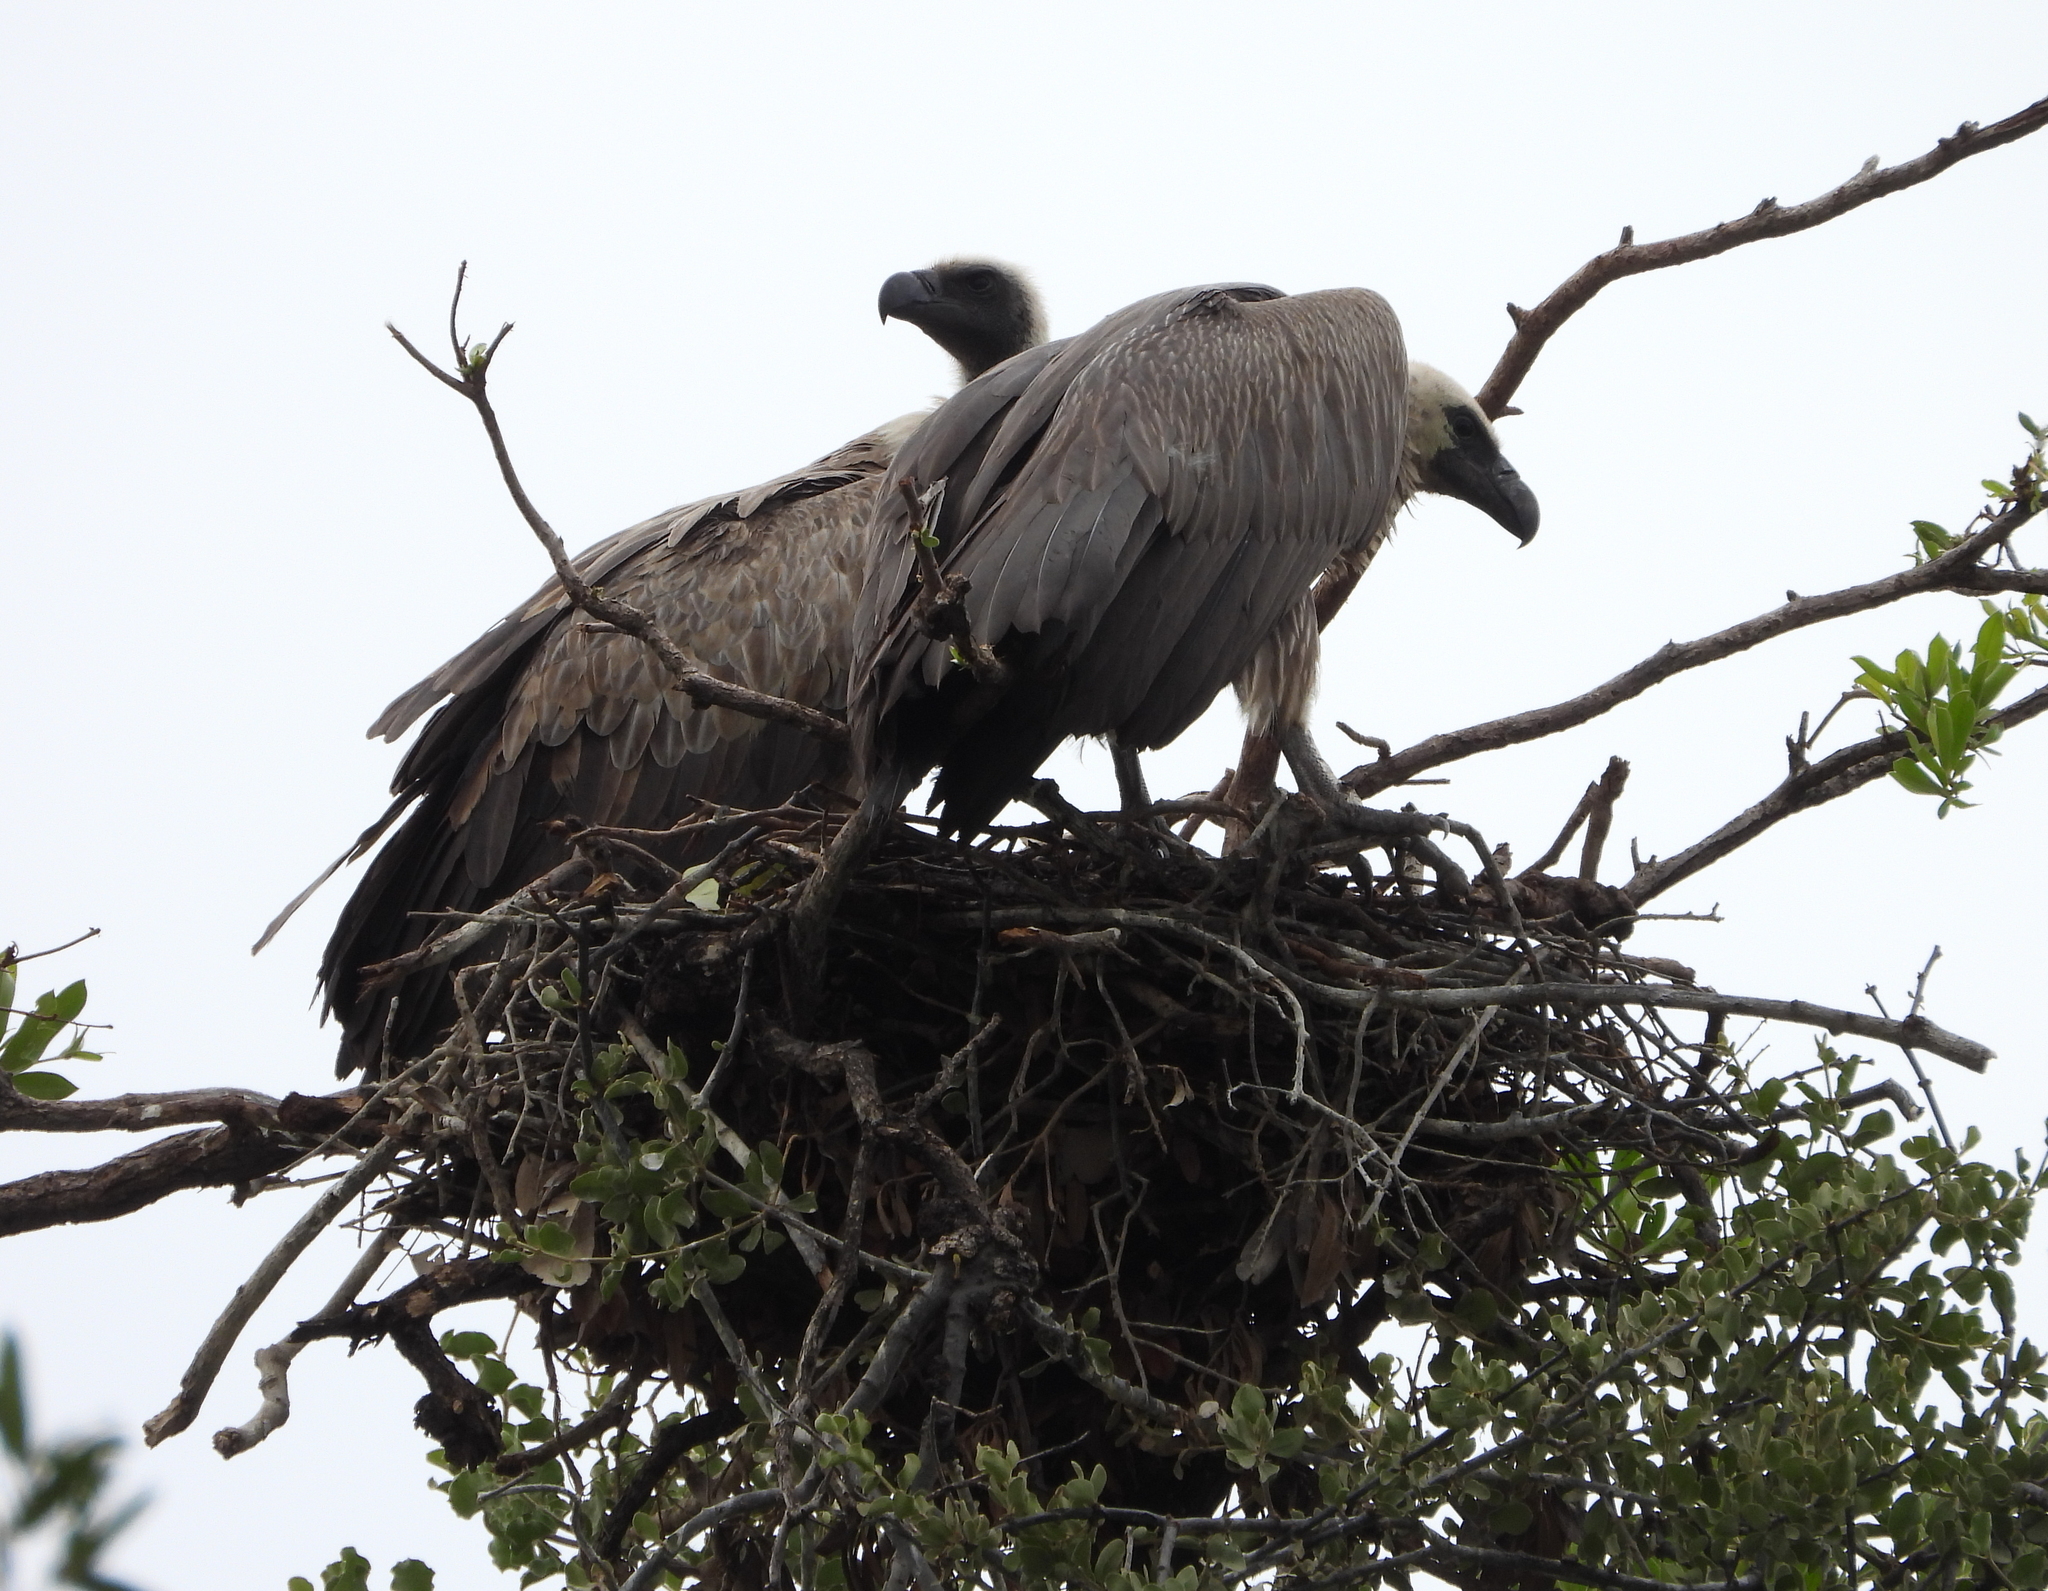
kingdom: Animalia
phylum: Chordata
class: Aves
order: Accipitriformes
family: Accipitridae
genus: Gyps
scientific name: Gyps africanus
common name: White-backed vulture
